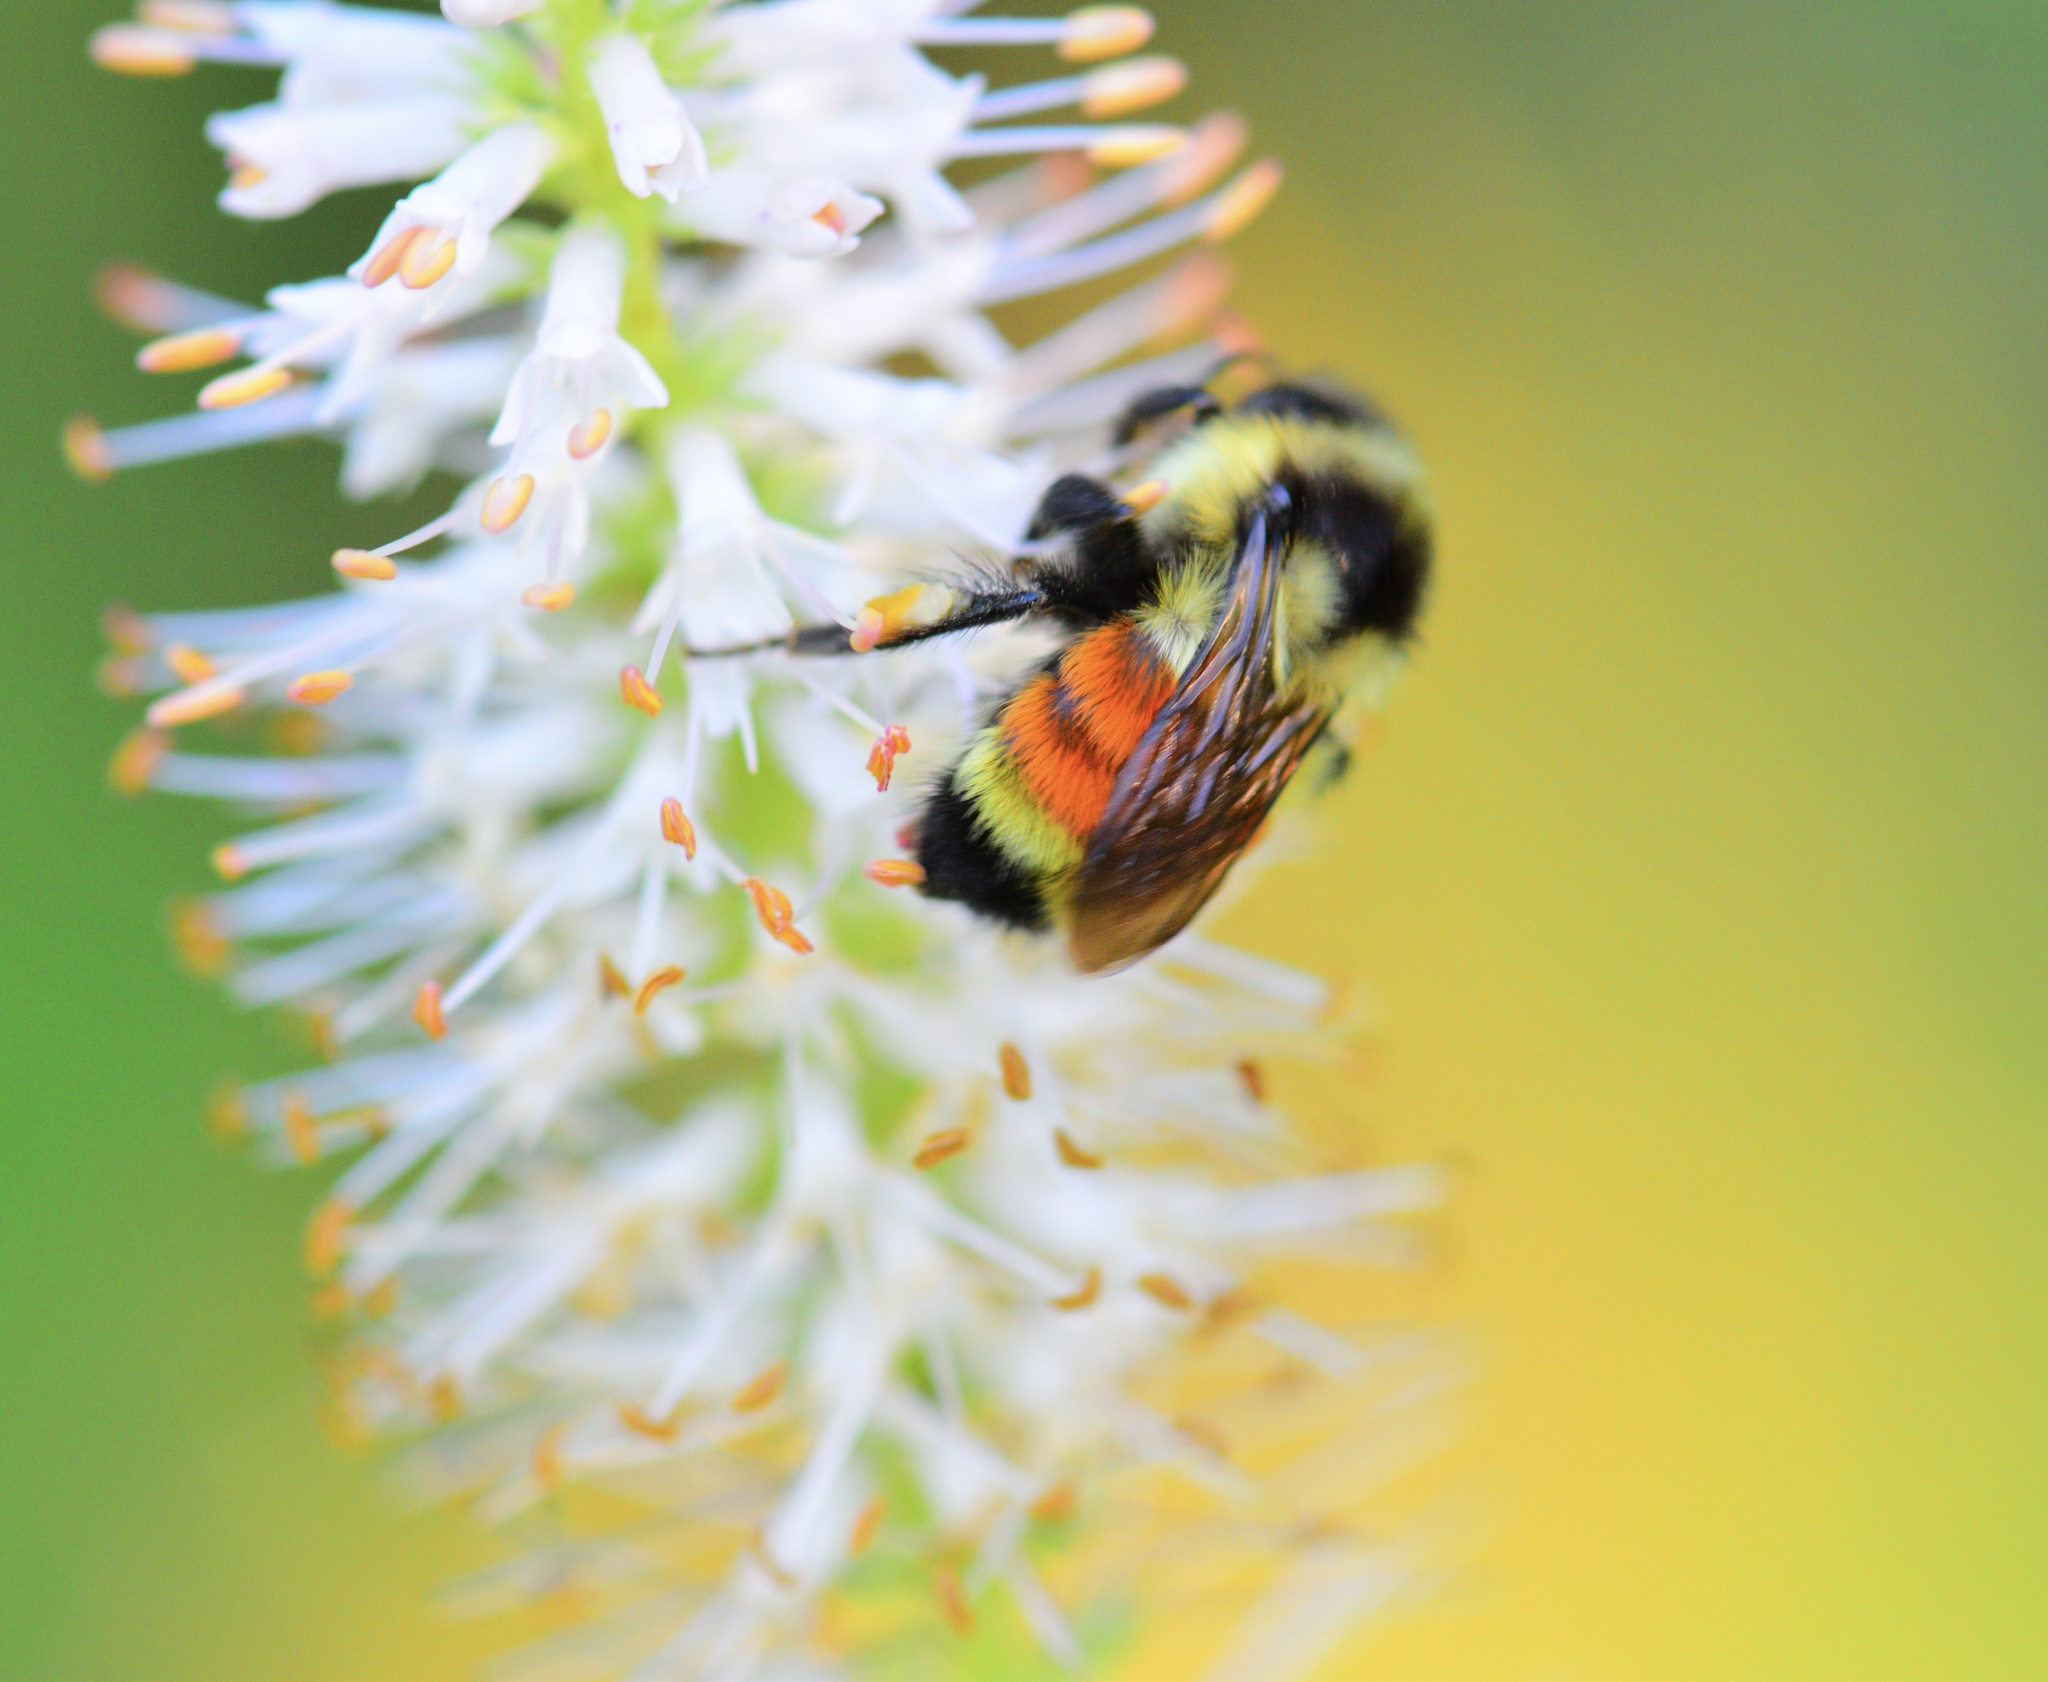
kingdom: Animalia
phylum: Arthropoda
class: Insecta
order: Hymenoptera
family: Apidae
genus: Bombus
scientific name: Bombus ternarius
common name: Tri-colored bumble bee
